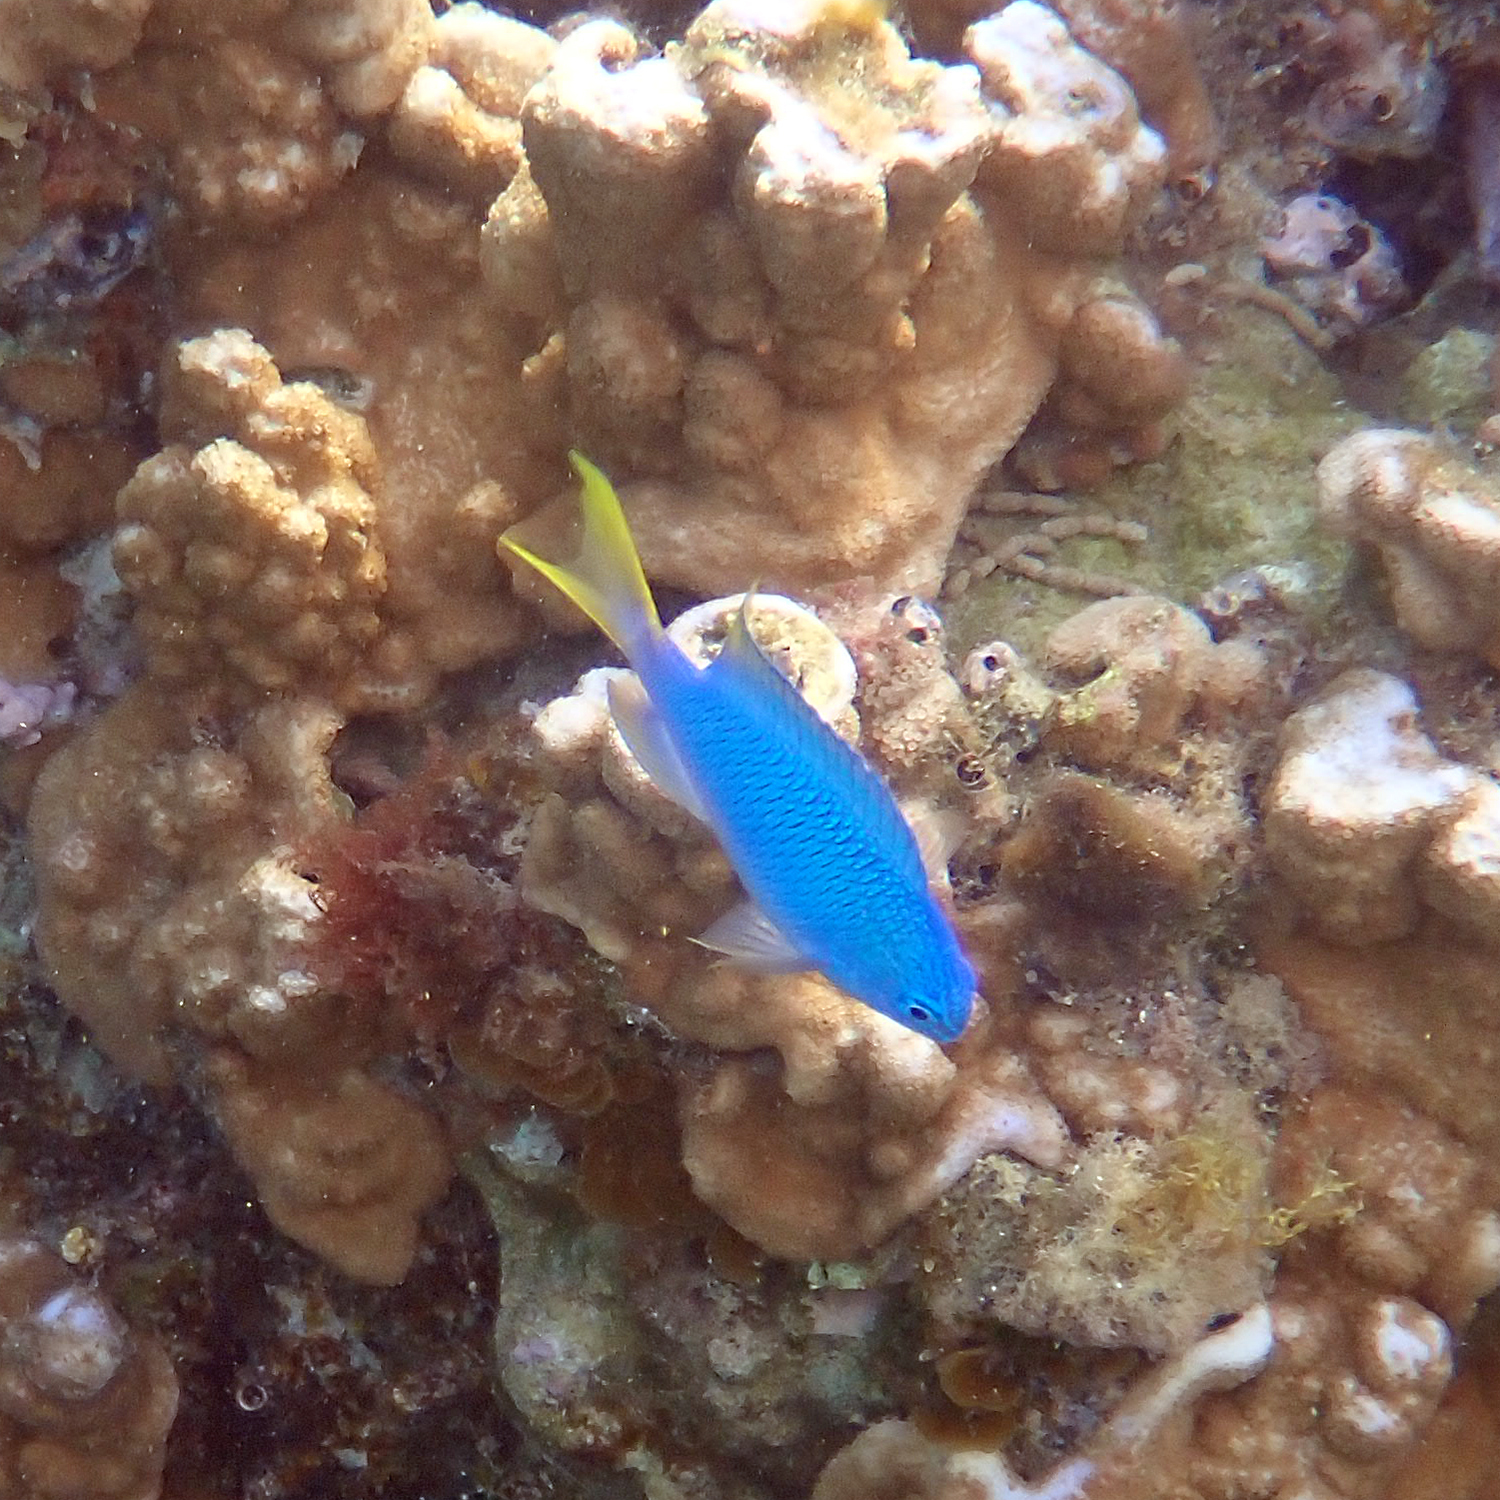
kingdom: Animalia
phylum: Chordata
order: Perciformes
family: Pomacentridae
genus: Pomacentrus
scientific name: Pomacentrus pavo
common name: Sapphire damsel
